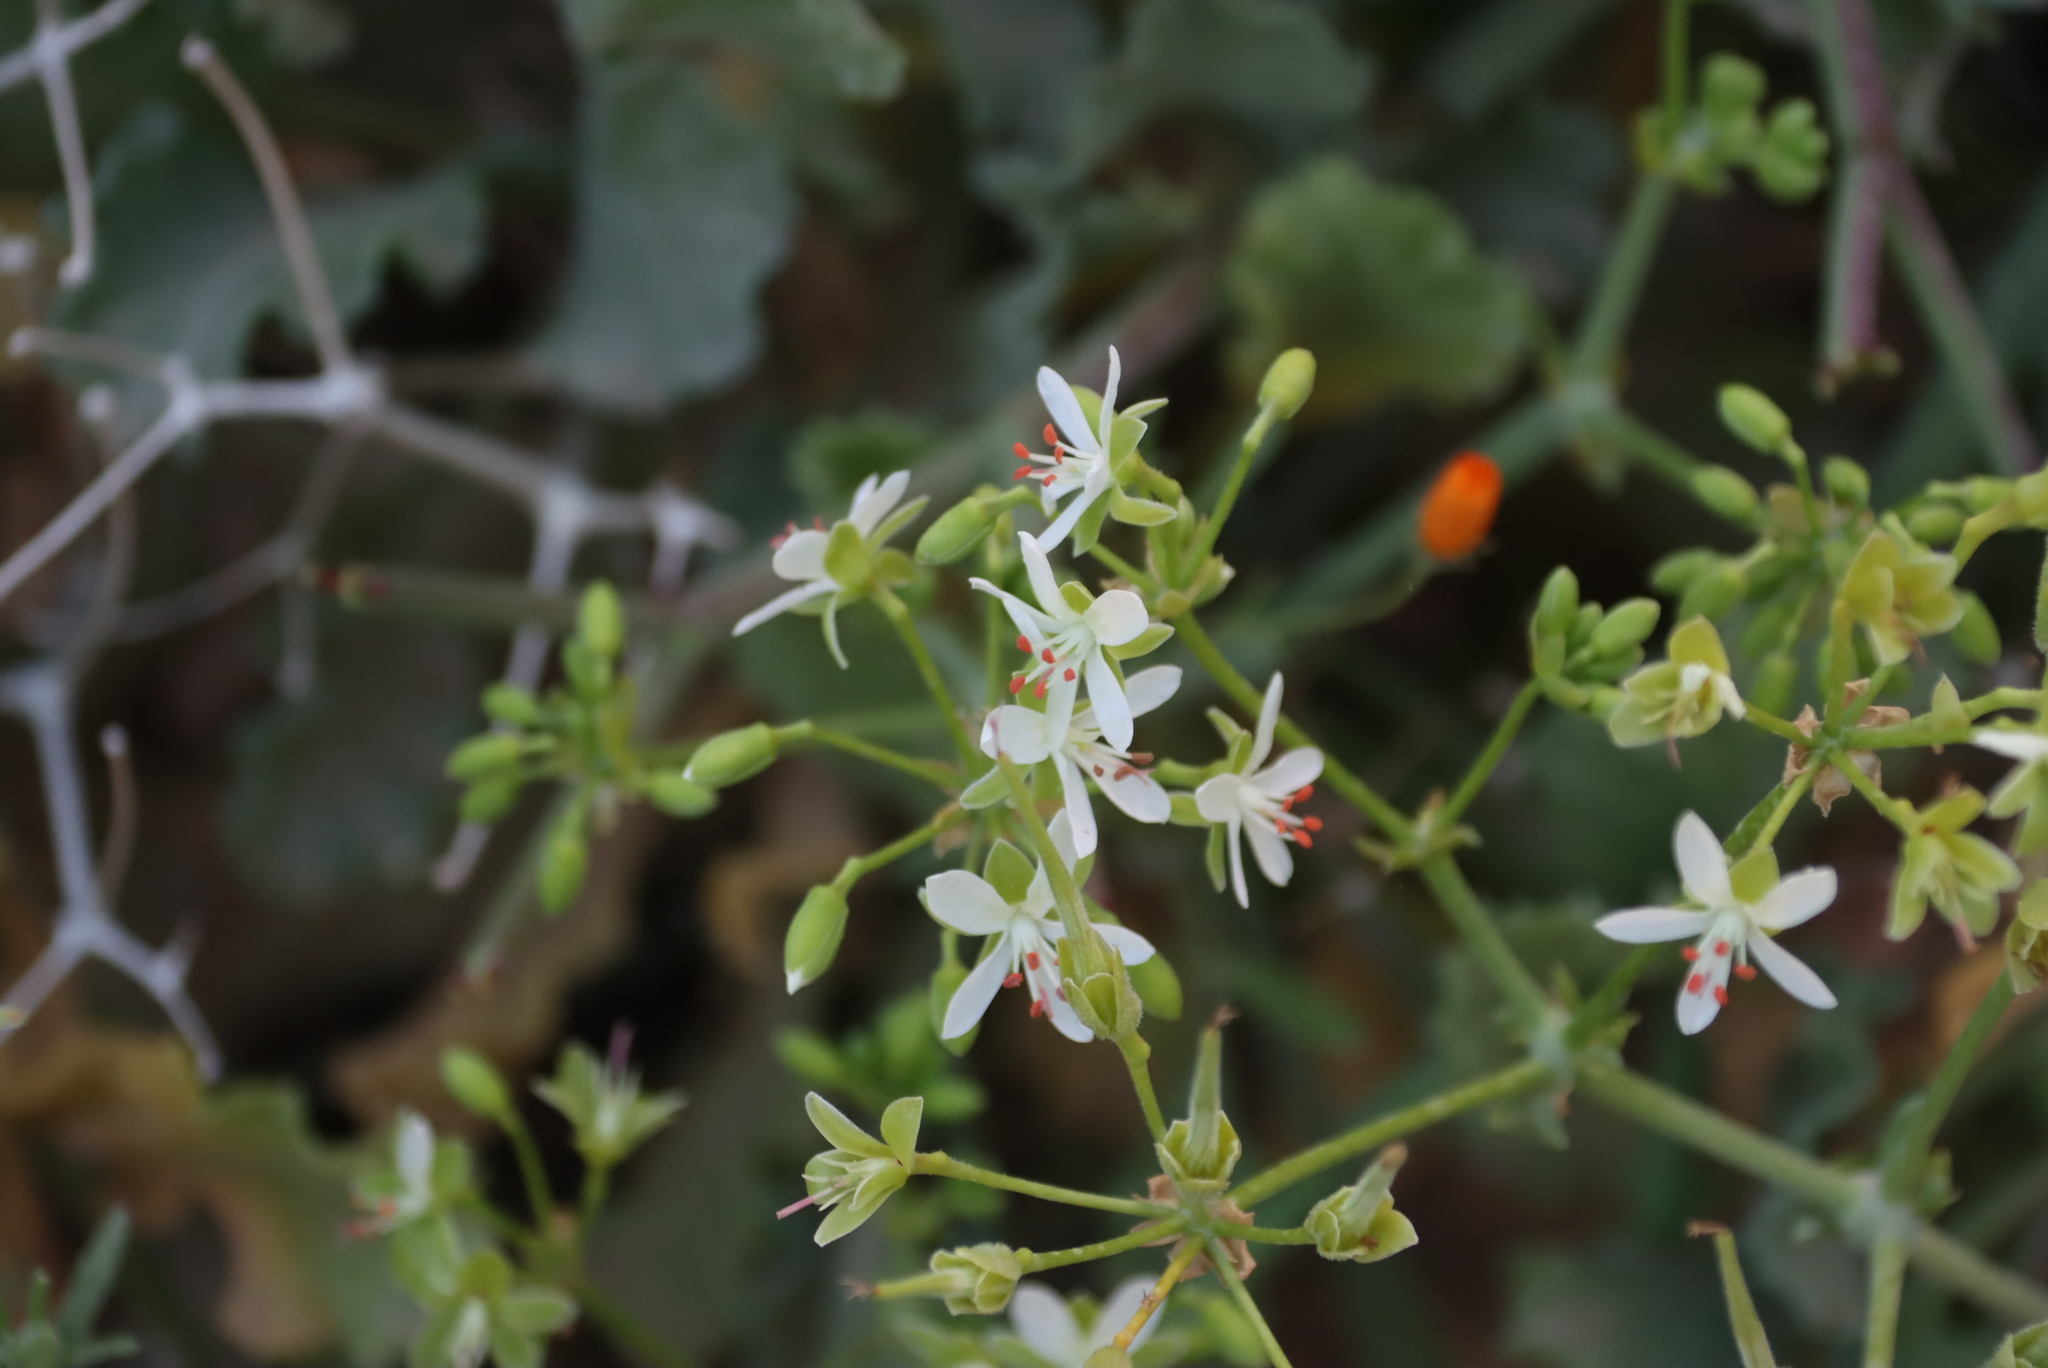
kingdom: Plantae
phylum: Tracheophyta
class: Magnoliopsida
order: Geraniales
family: Geraniaceae
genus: Pelargonium
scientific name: Pelargonium klinghardtense
